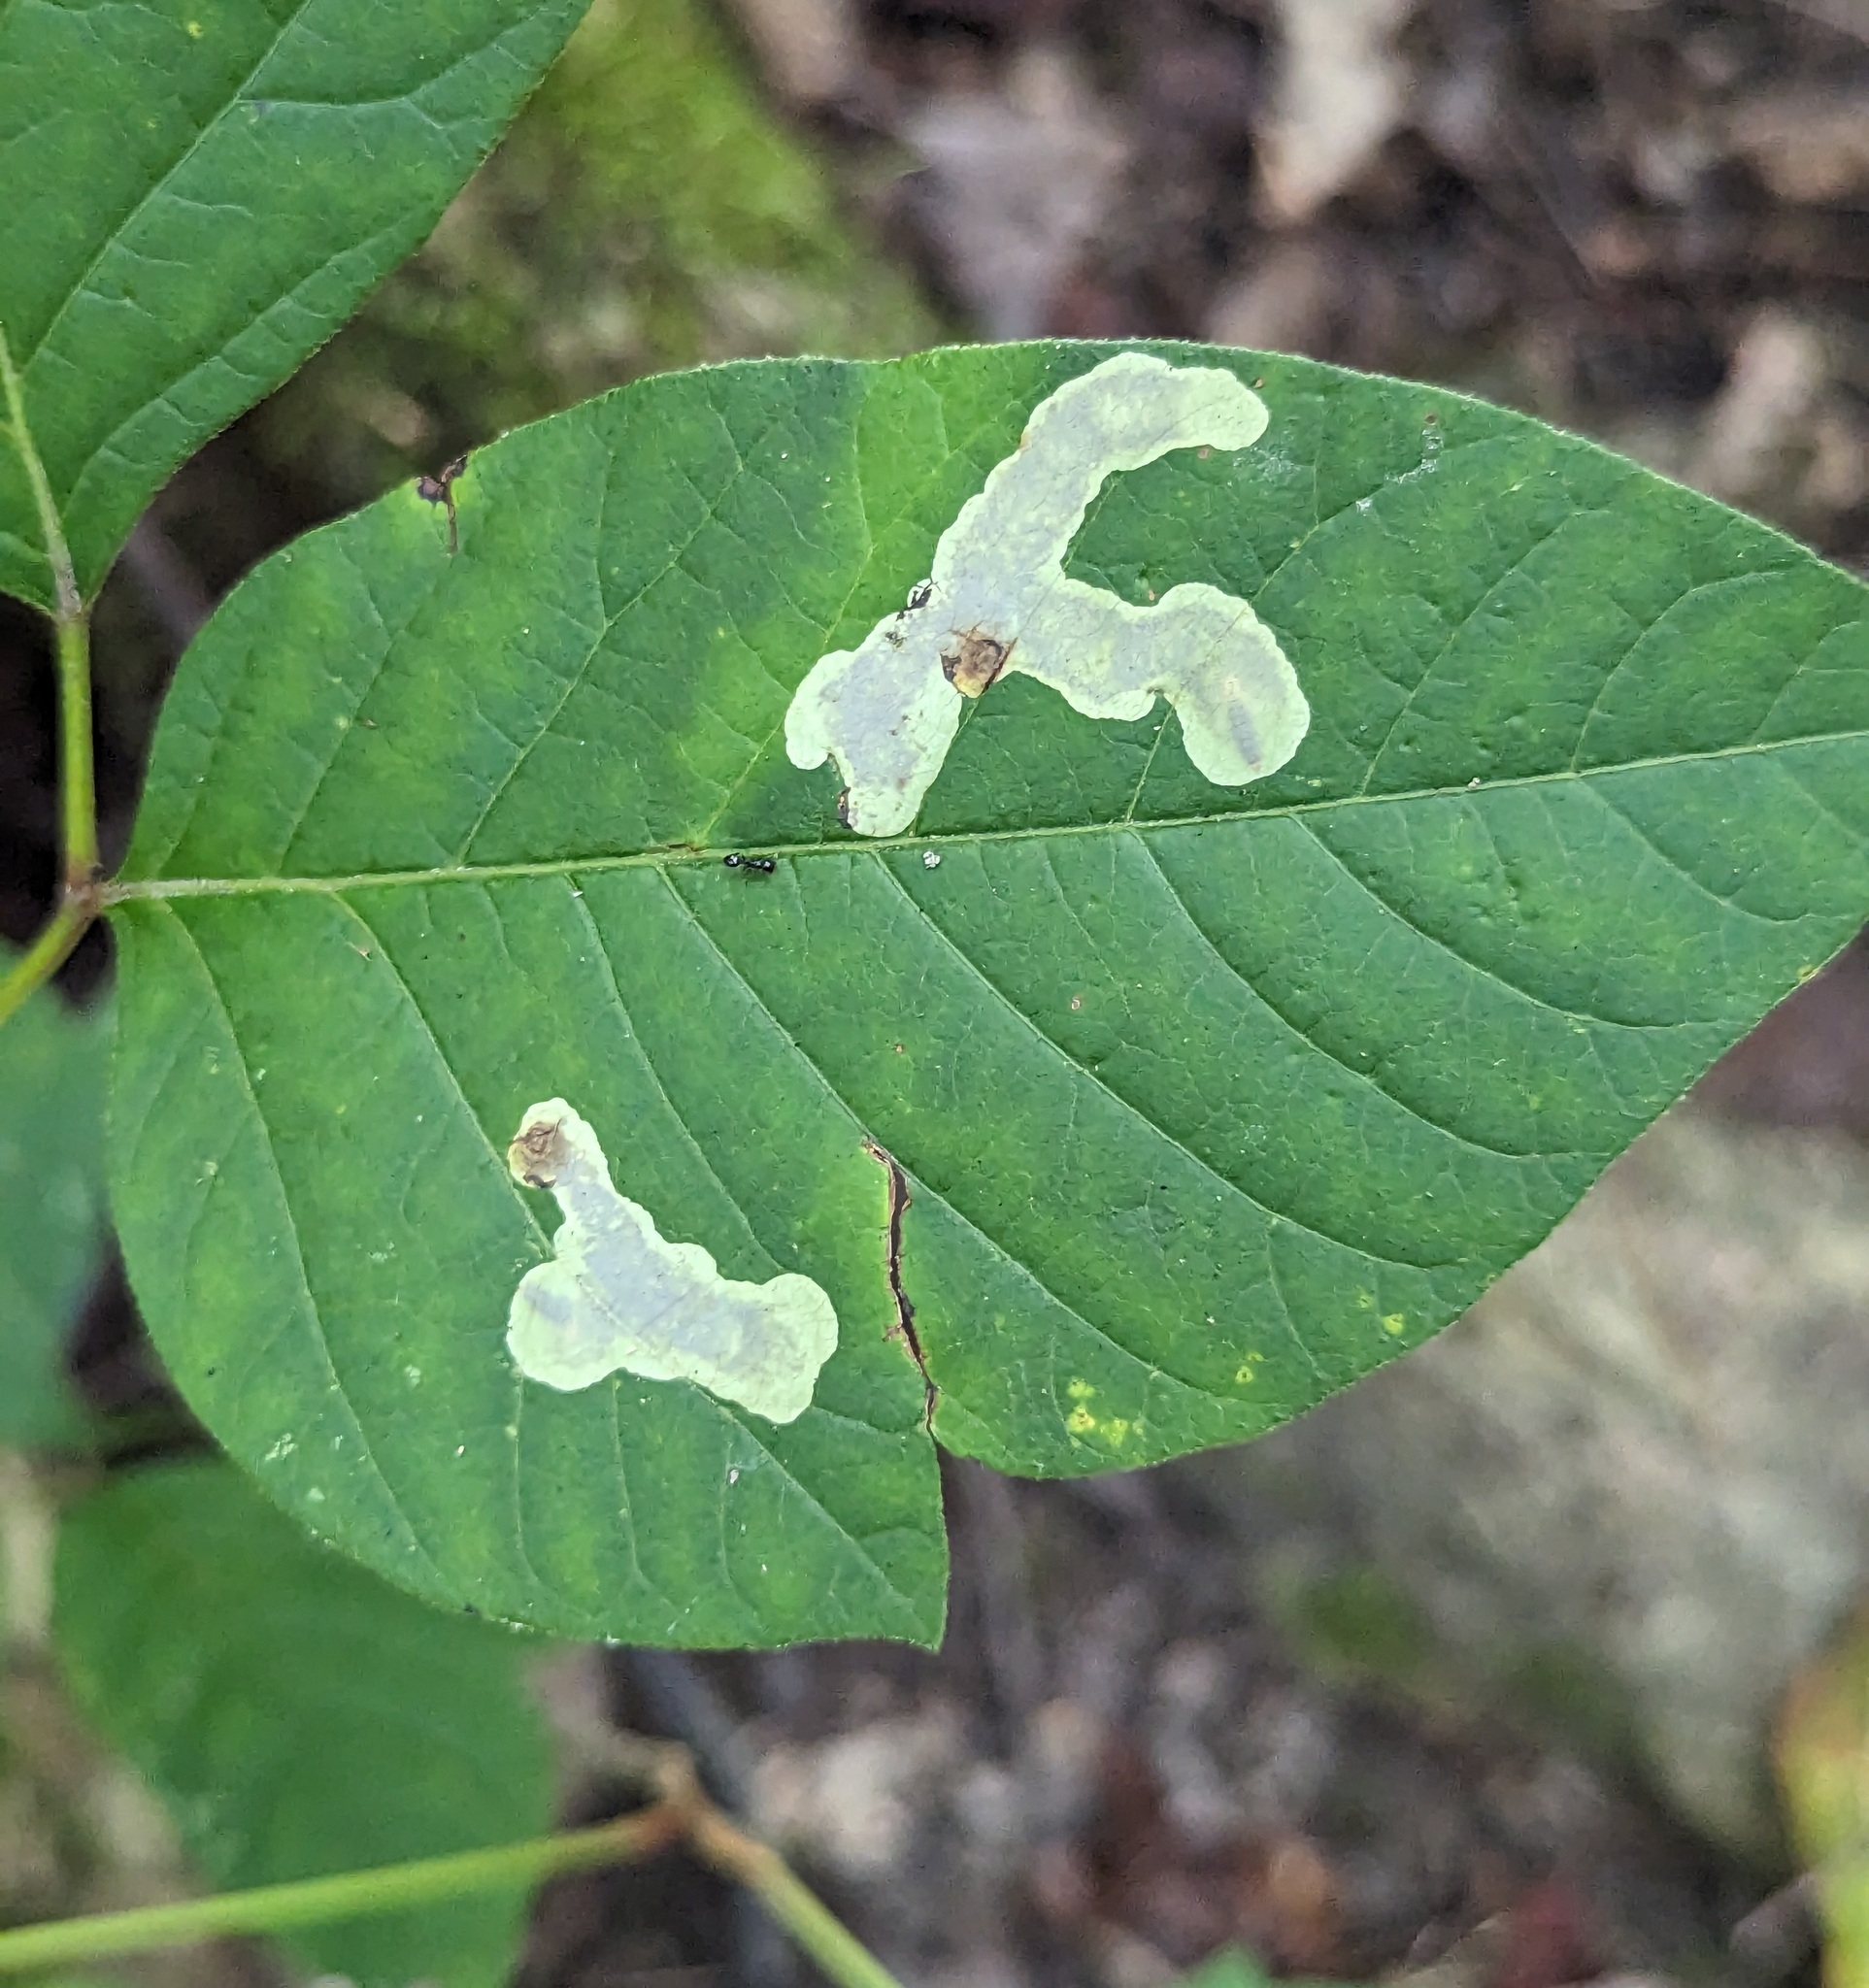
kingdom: Animalia
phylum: Arthropoda
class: Insecta
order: Lepidoptera
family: Gracillariidae
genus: Cameraria
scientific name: Cameraria guttifinitella
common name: Poison ivy leaf-miner moth
